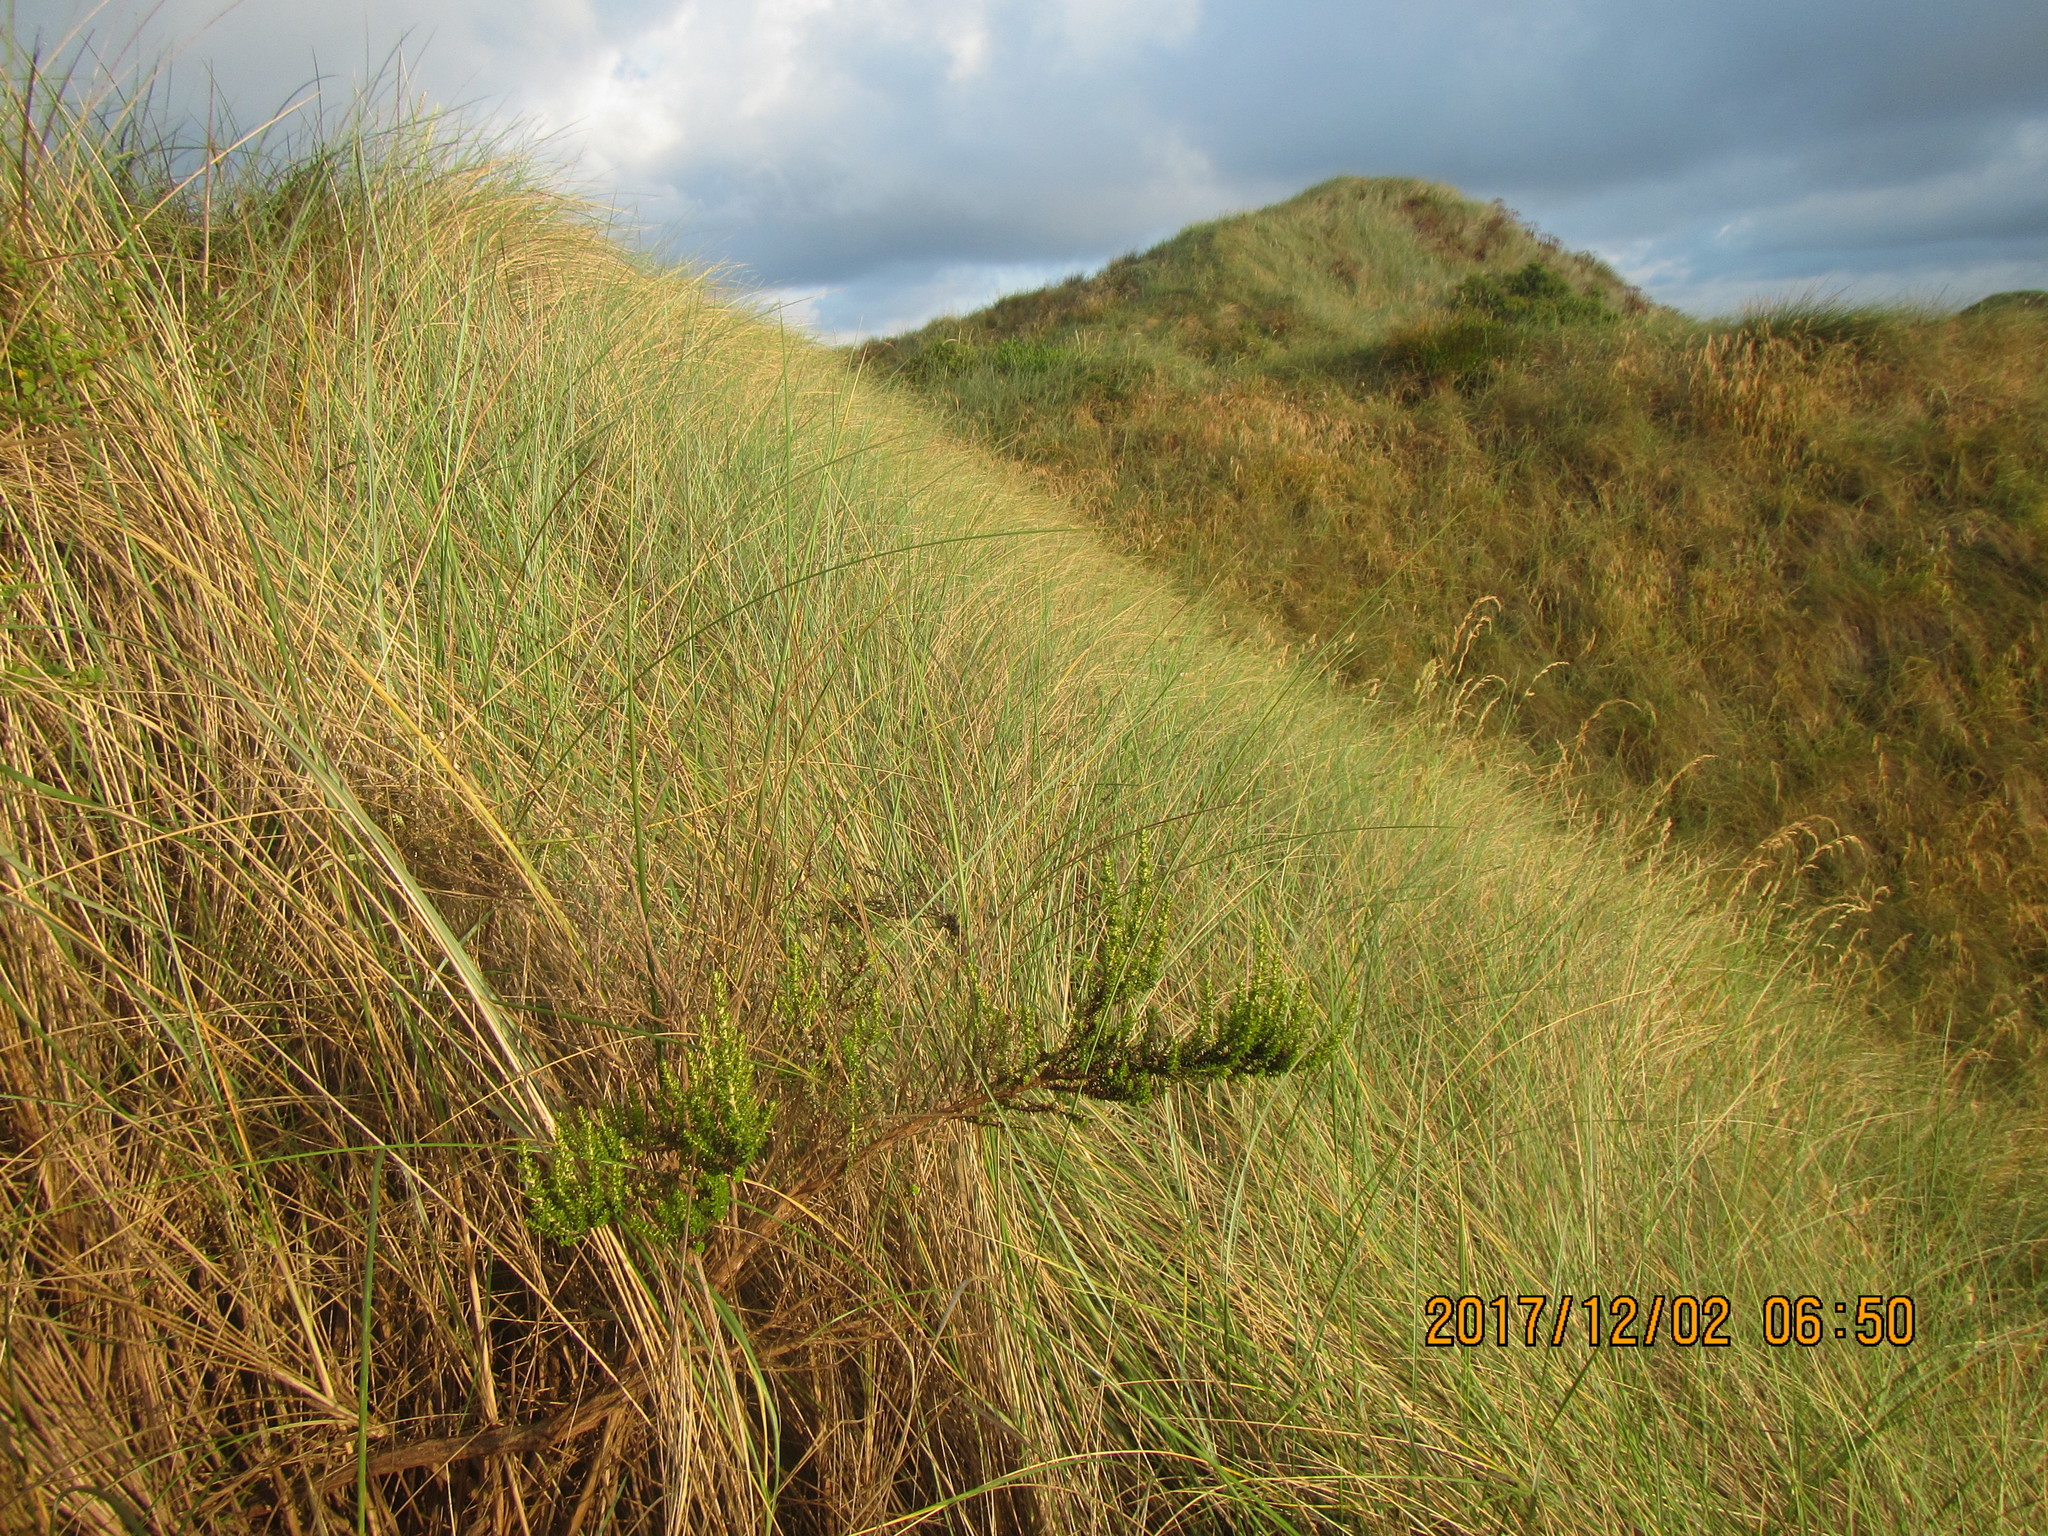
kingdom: Plantae
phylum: Tracheophyta
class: Magnoliopsida
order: Asterales
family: Asteraceae
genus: Ozothamnus
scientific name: Ozothamnus leptophyllus
